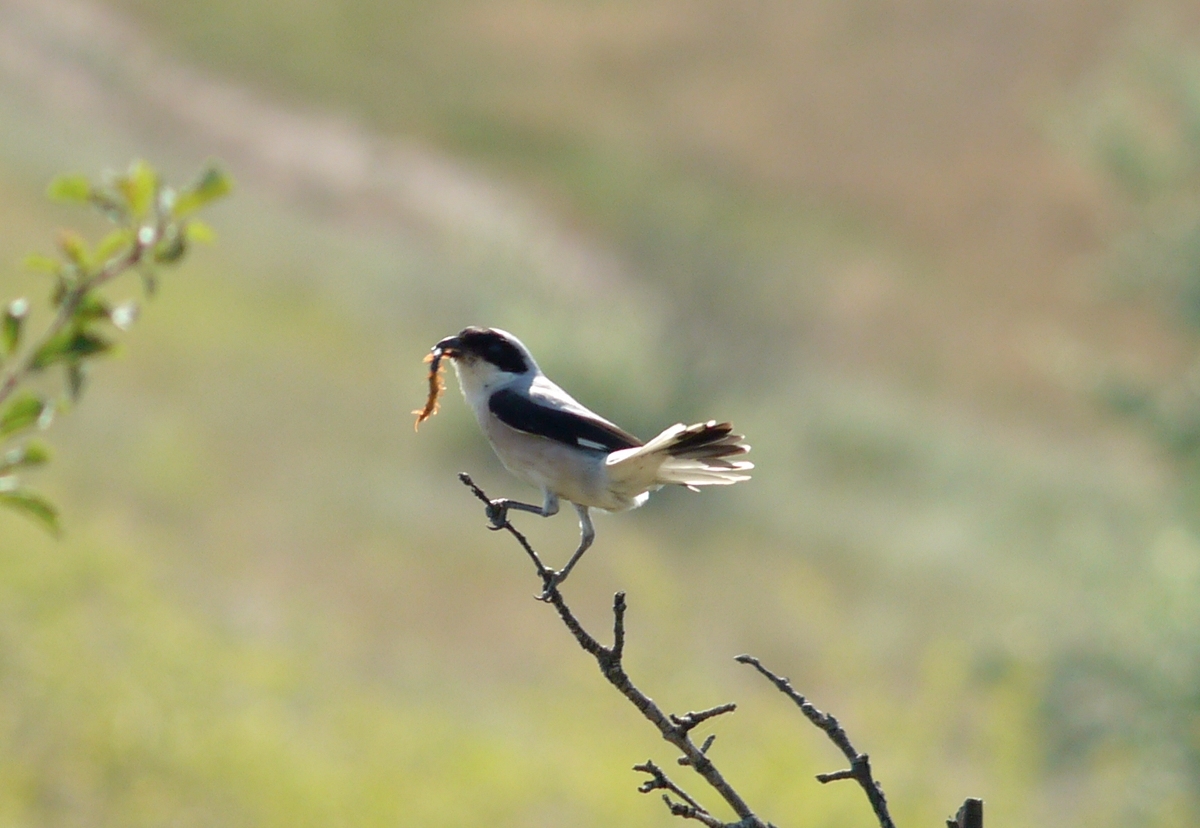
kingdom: Animalia
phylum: Chordata
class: Aves
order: Passeriformes
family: Laniidae
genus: Lanius
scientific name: Lanius minor
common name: Lesser grey shrike
